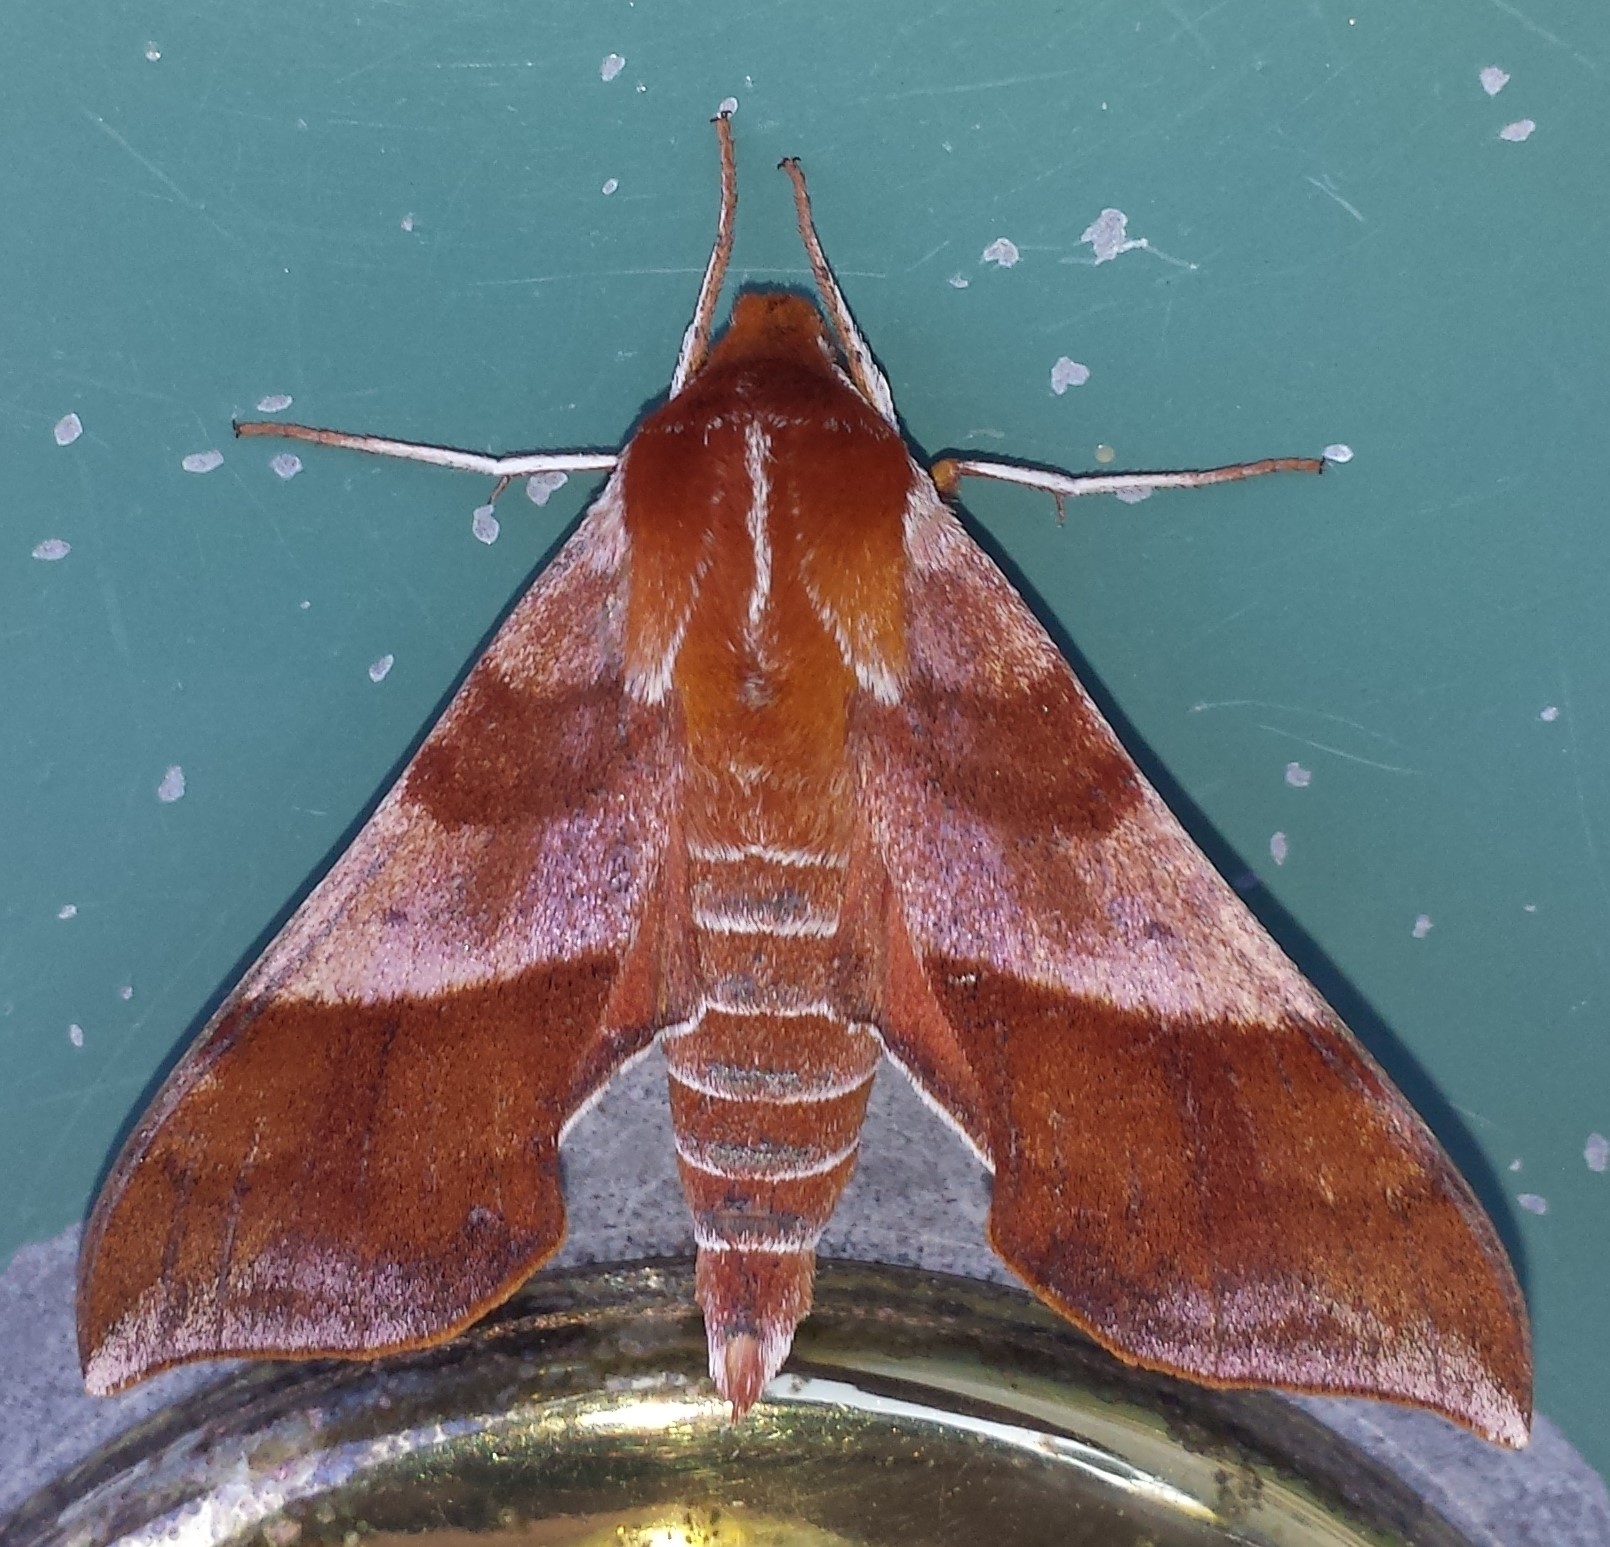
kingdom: Animalia
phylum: Arthropoda
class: Insecta
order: Lepidoptera
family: Sphingidae
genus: Darapsa
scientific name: Darapsa choerilus
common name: Azalea sphinx
